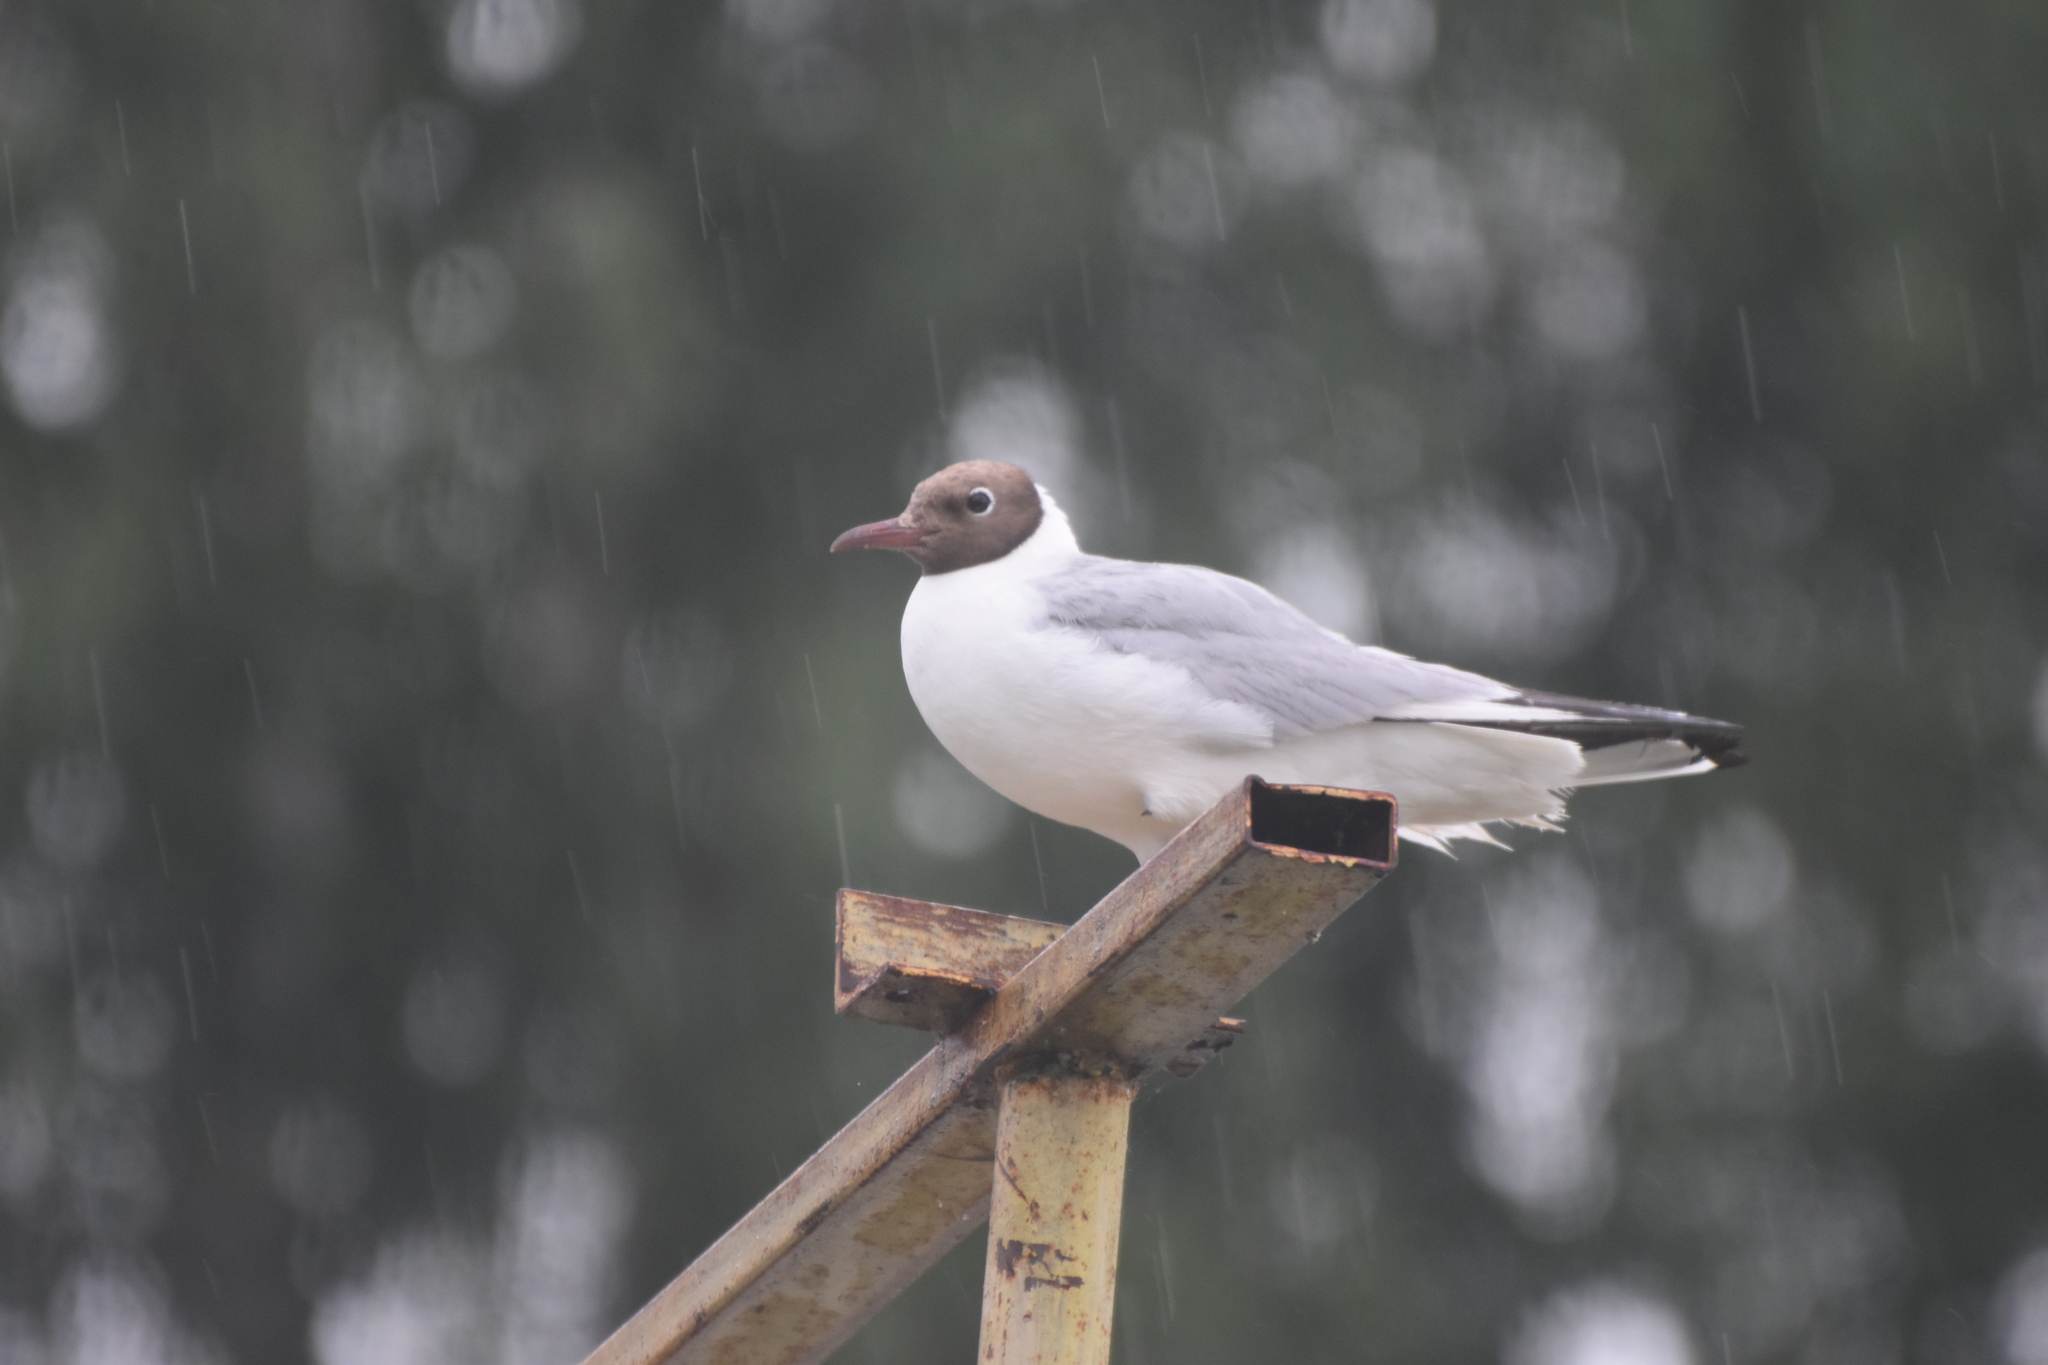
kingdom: Animalia
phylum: Chordata
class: Aves
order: Charadriiformes
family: Laridae
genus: Chroicocephalus
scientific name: Chroicocephalus ridibundus
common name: Black-headed gull
